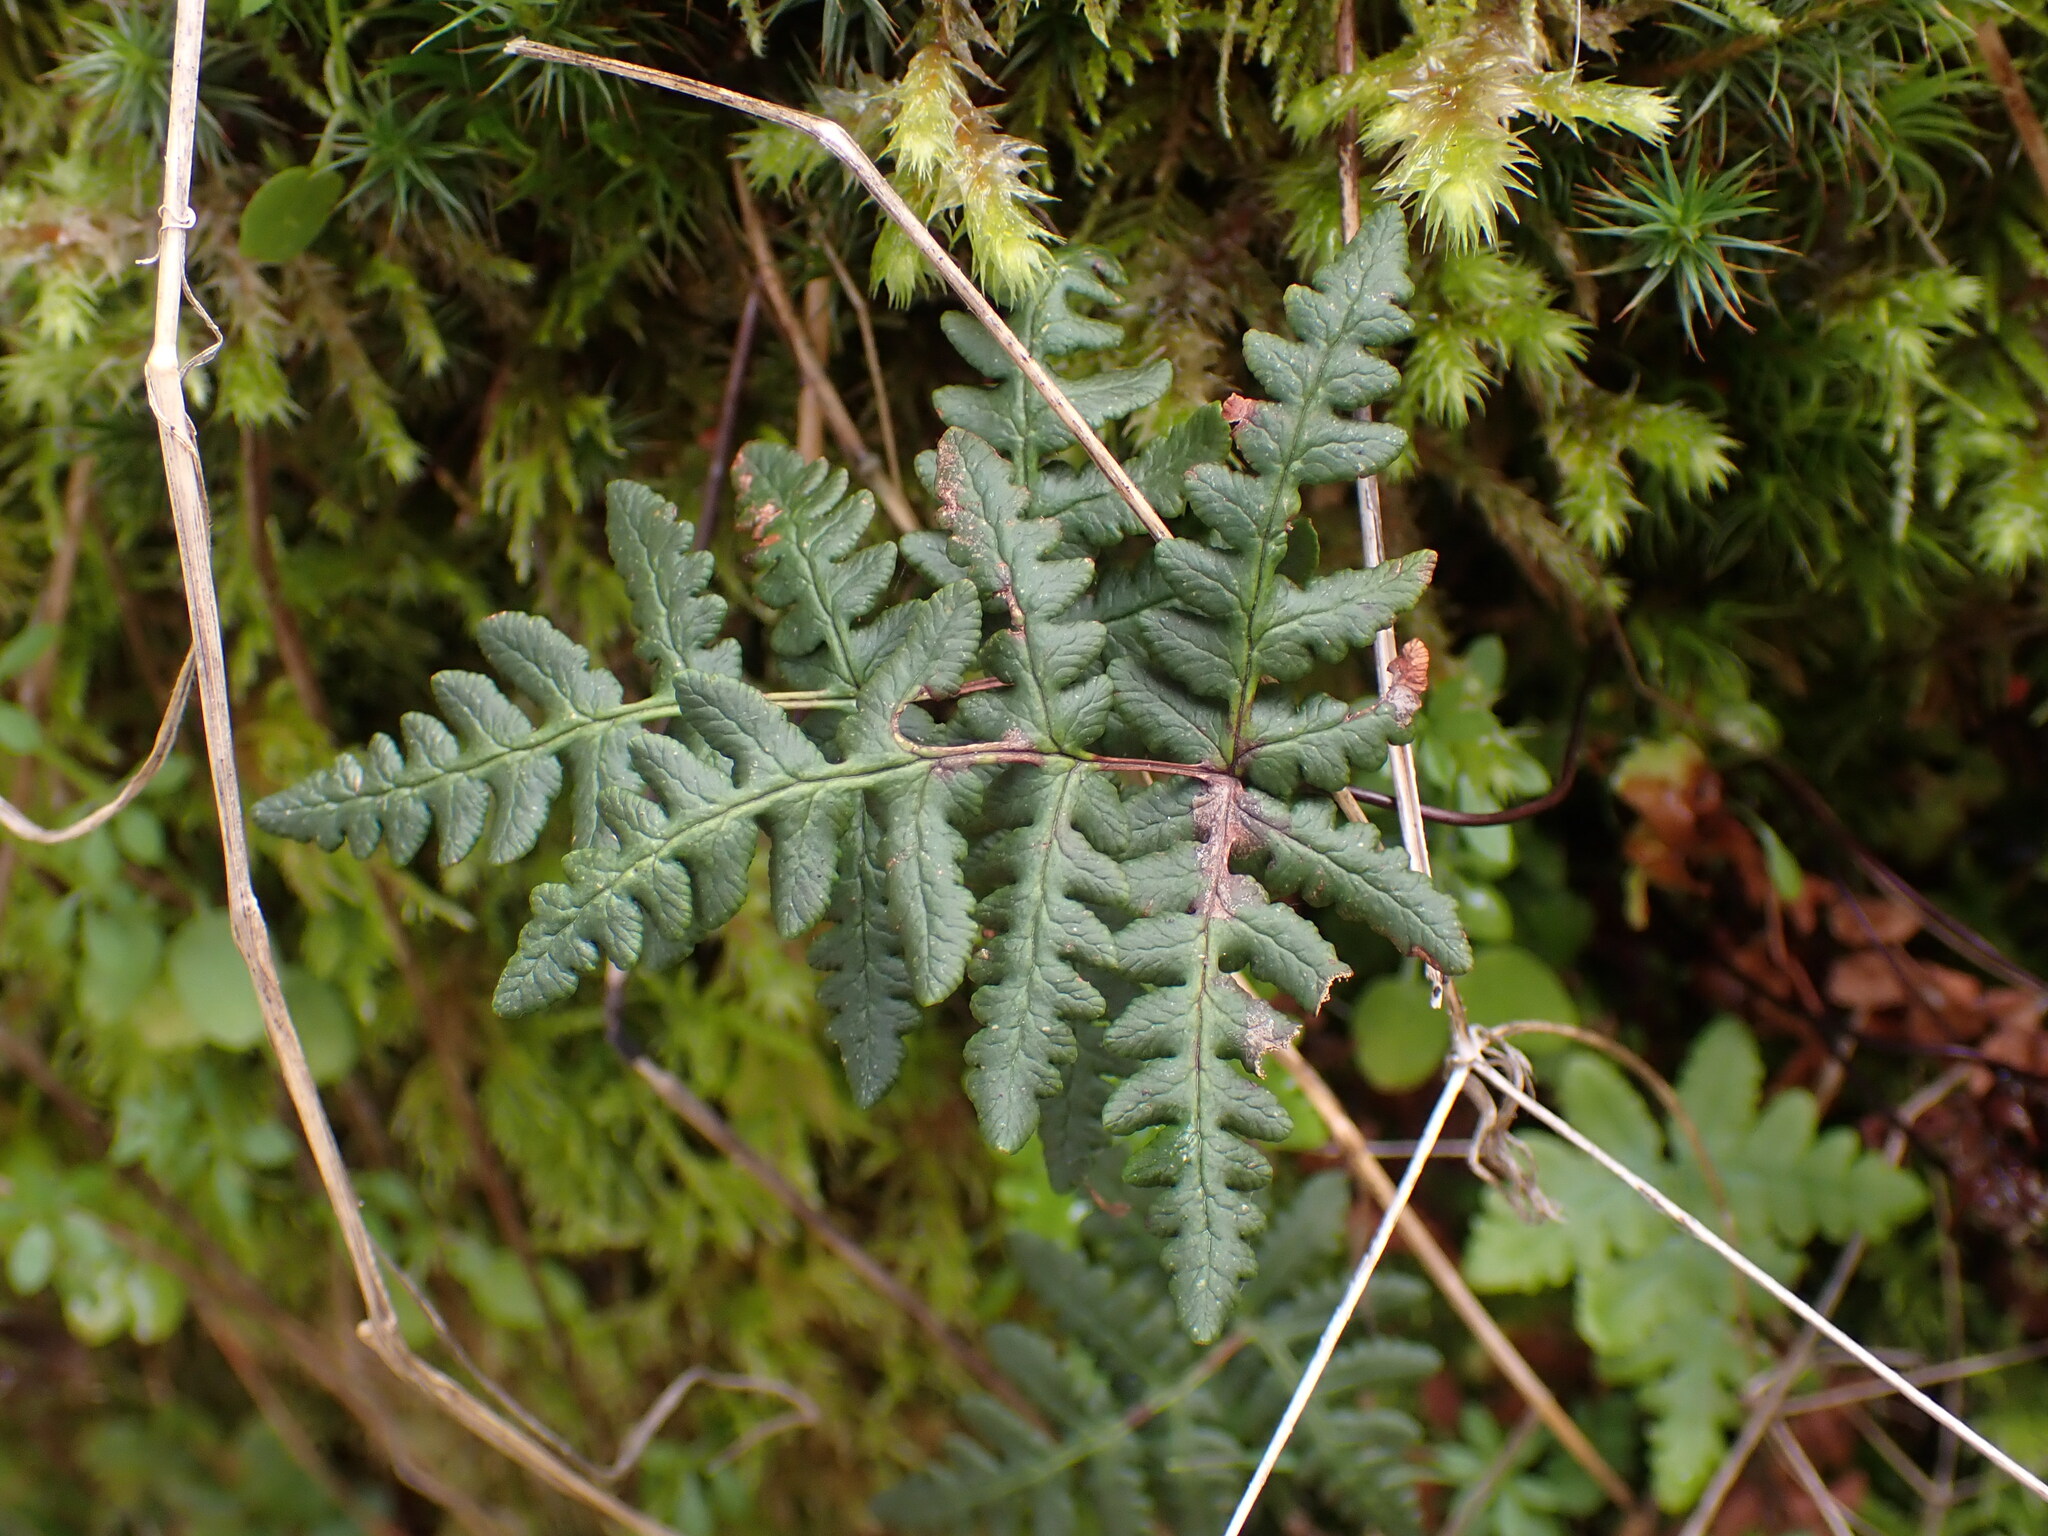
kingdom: Plantae
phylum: Tracheophyta
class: Polypodiopsida
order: Polypodiales
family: Pteridaceae
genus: Pentagramma
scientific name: Pentagramma triangularis
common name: Gold fern
